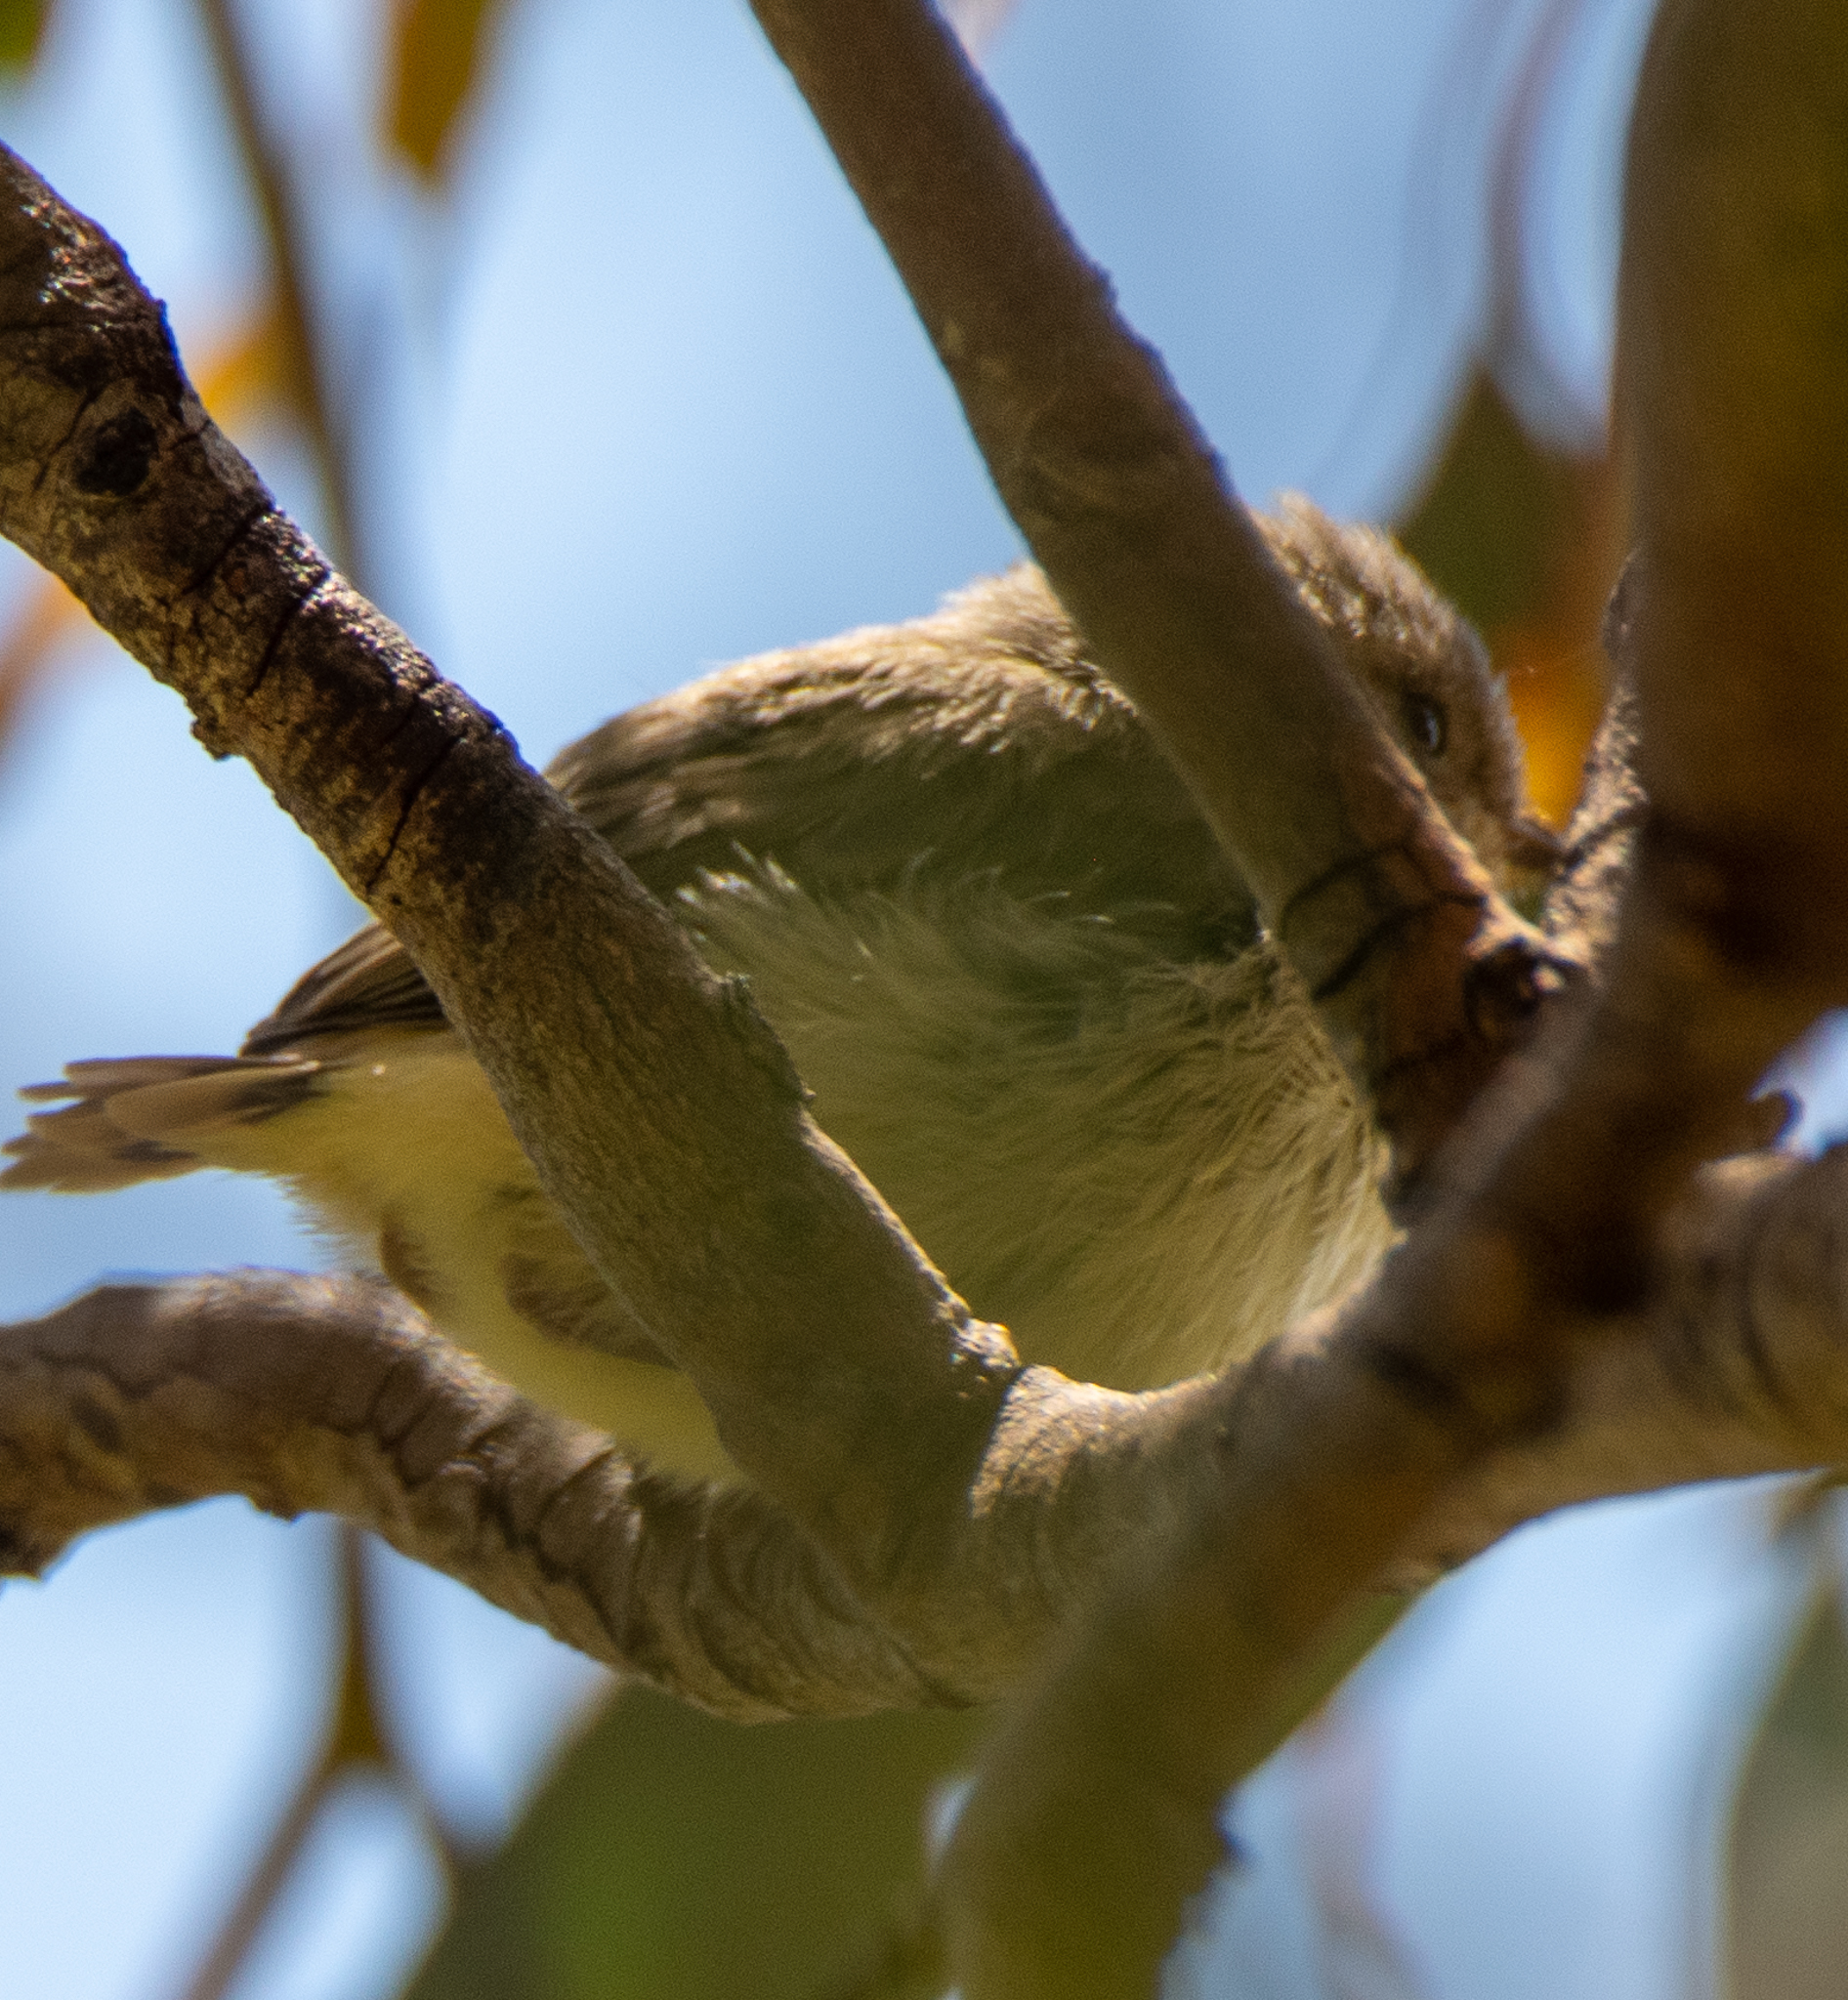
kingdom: Animalia
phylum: Chordata
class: Aves
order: Passeriformes
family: Acanthizidae
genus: Acanthiza
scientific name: Acanthiza reguloides
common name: Buff-rumped thornbill
